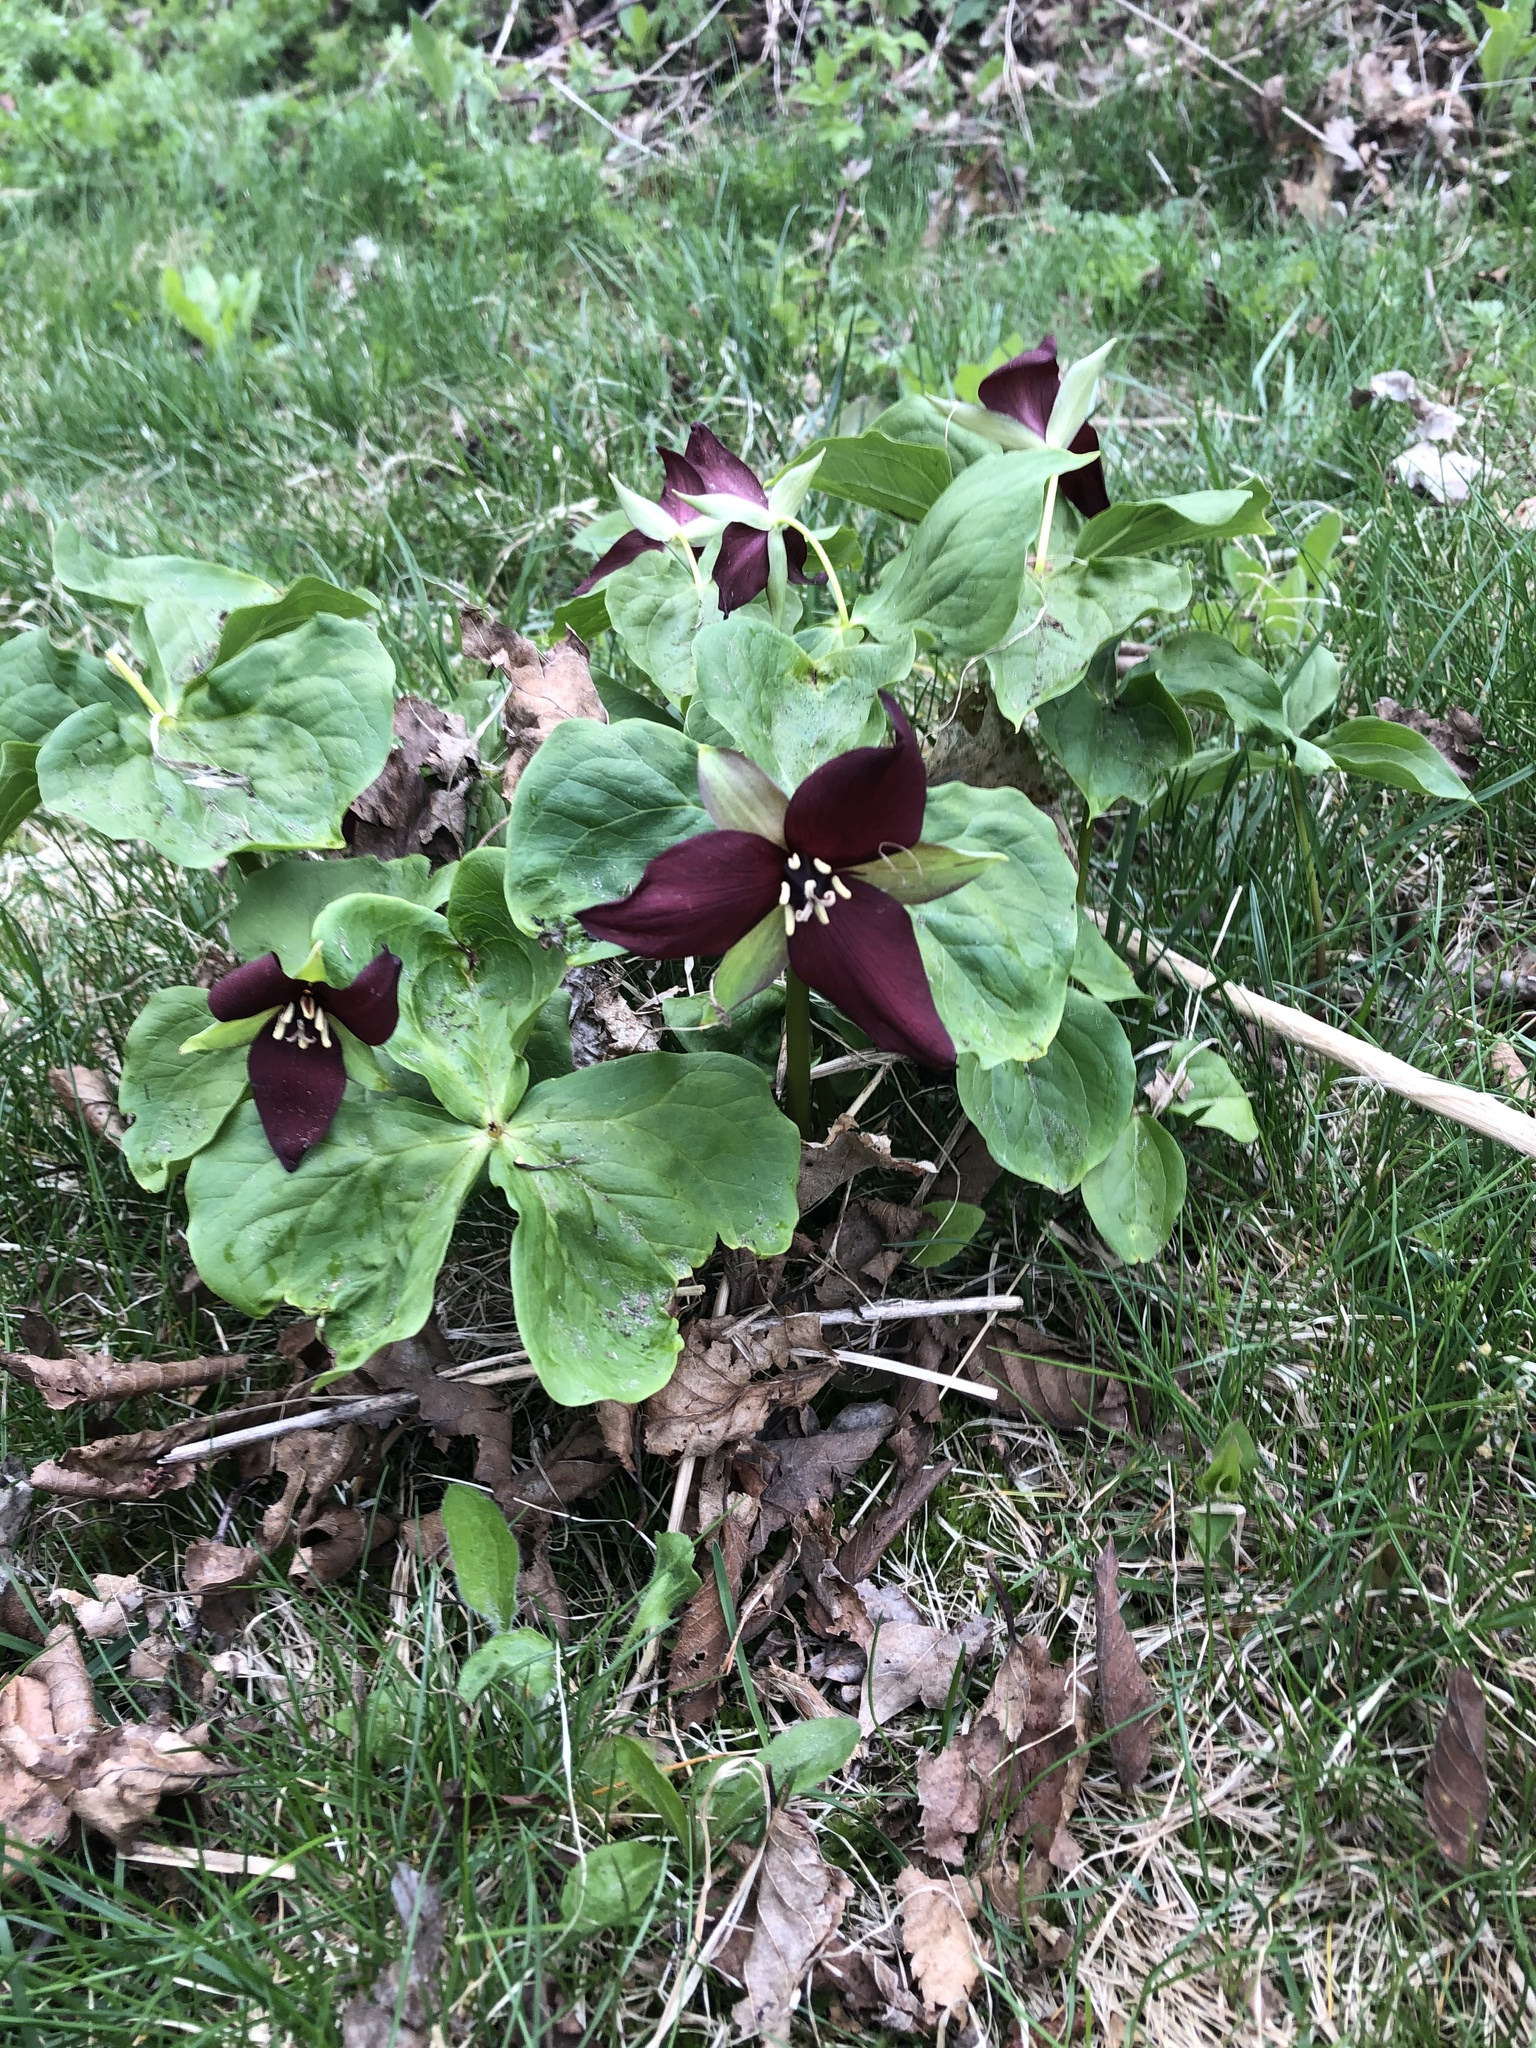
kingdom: Plantae
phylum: Tracheophyta
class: Liliopsida
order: Liliales
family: Melanthiaceae
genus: Trillium
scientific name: Trillium erectum
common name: Purple trillium
